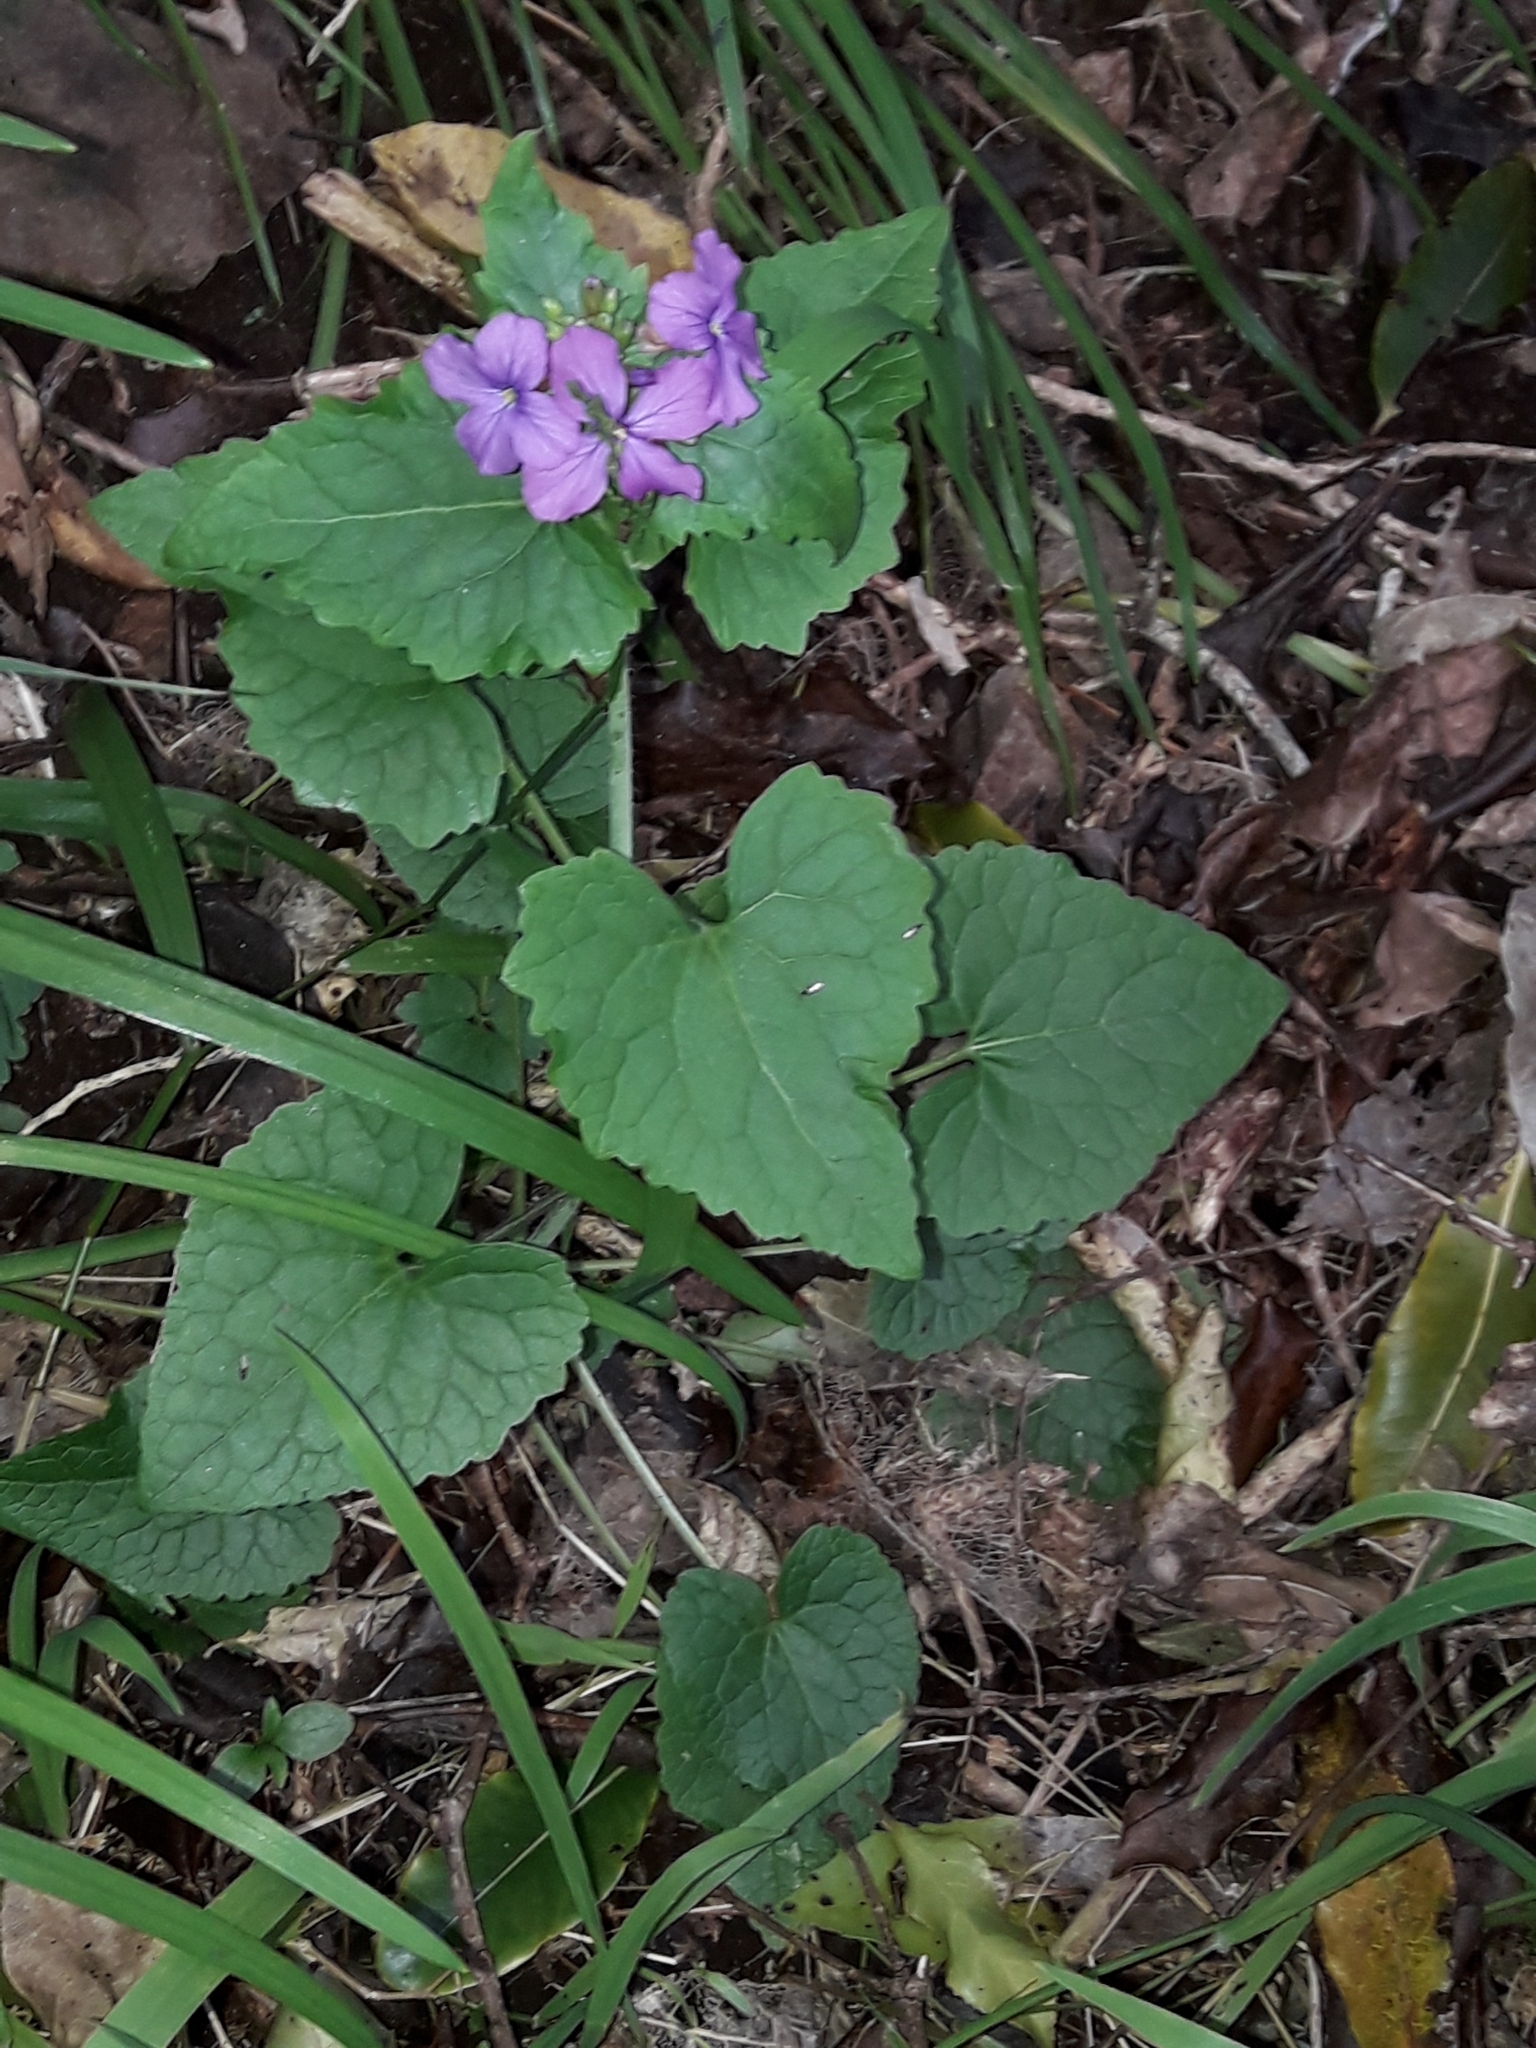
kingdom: Plantae
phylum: Tracheophyta
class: Magnoliopsida
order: Brassicales
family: Brassicaceae
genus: Lunaria
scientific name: Lunaria annua
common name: Honesty
